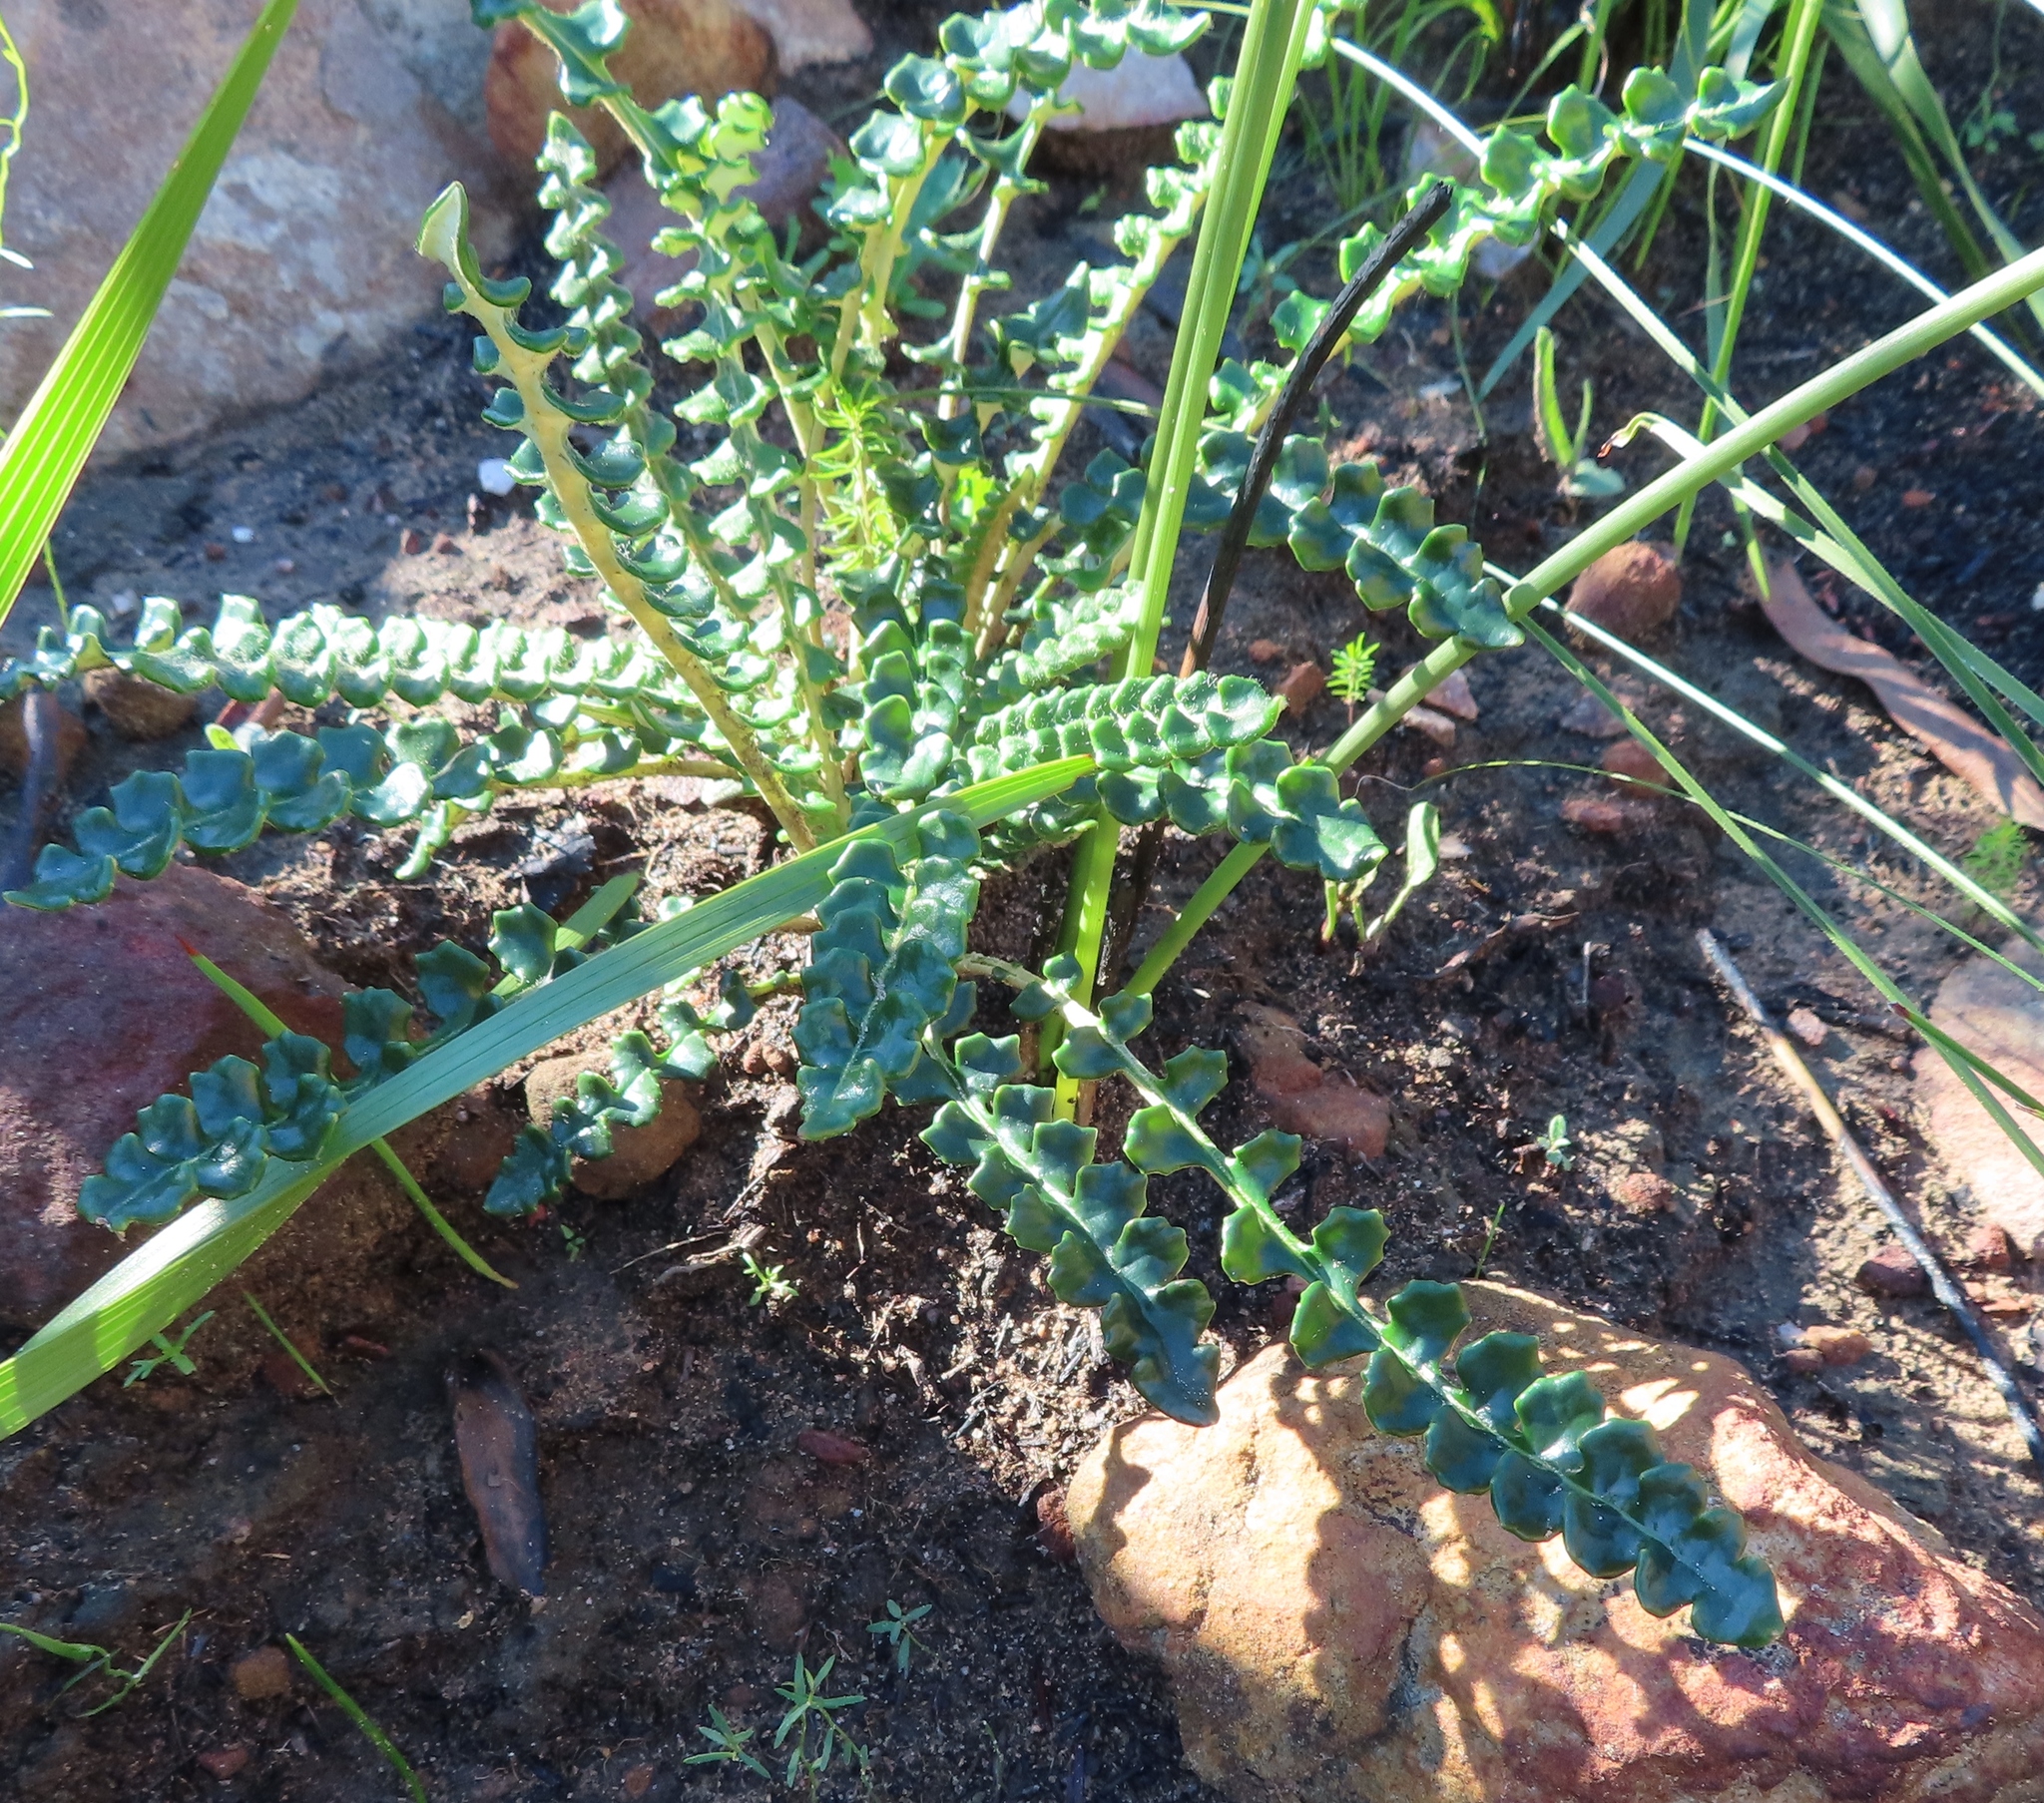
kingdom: Plantae
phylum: Tracheophyta
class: Magnoliopsida
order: Asterales
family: Asteraceae
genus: Gerbera
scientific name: Gerbera linnaei
